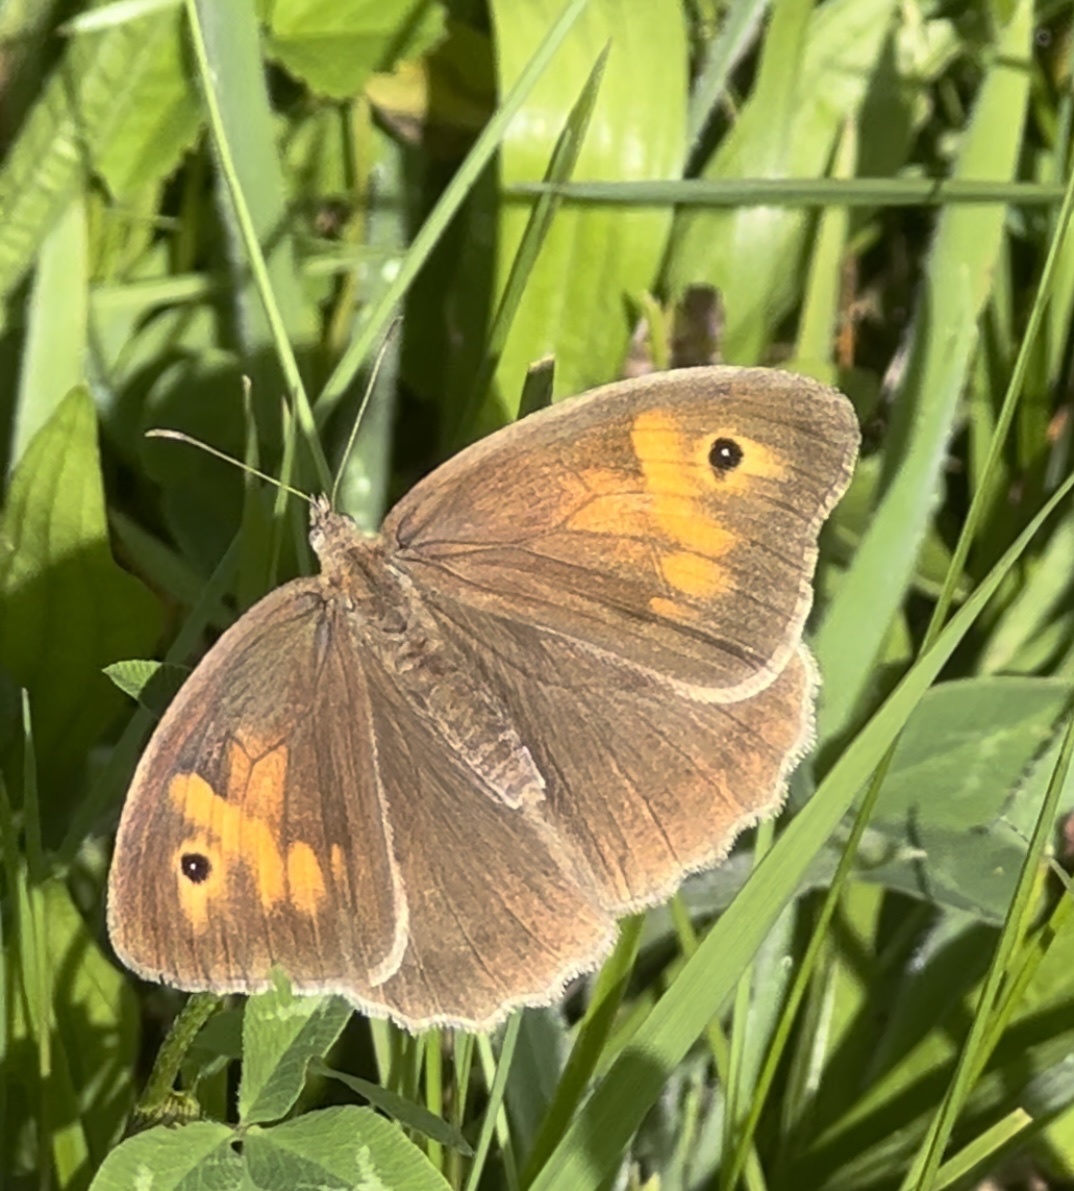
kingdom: Animalia
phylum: Arthropoda
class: Insecta
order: Lepidoptera
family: Nymphalidae
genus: Maniola
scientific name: Maniola jurtina
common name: Meadow brown
